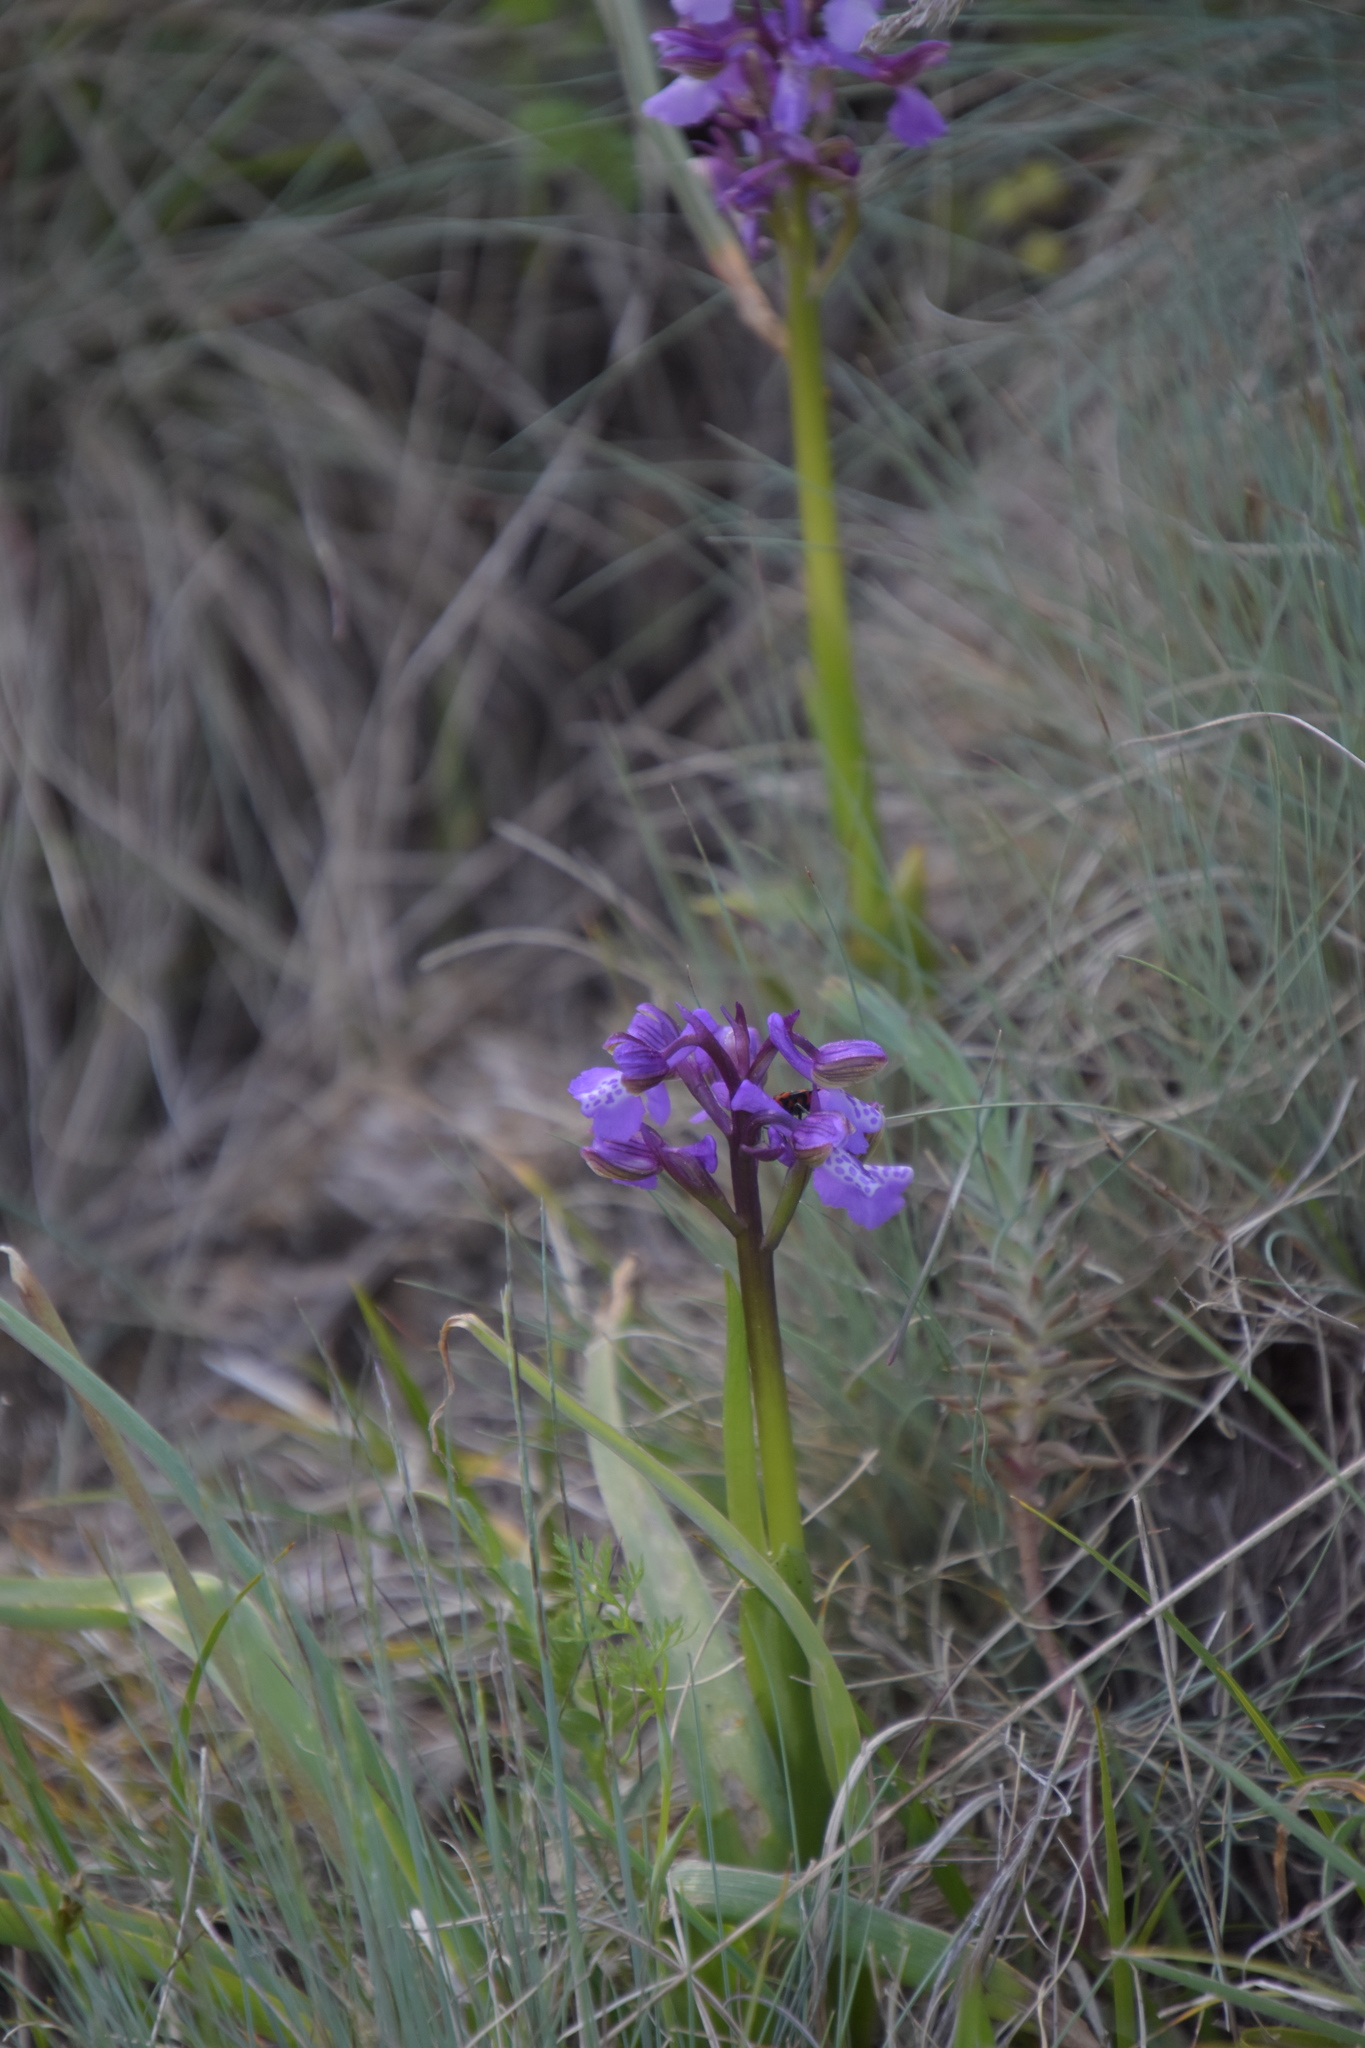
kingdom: Plantae
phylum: Tracheophyta
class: Liliopsida
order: Asparagales
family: Orchidaceae
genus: Anacamptis
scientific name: Anacamptis morio
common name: Green-winged orchid
